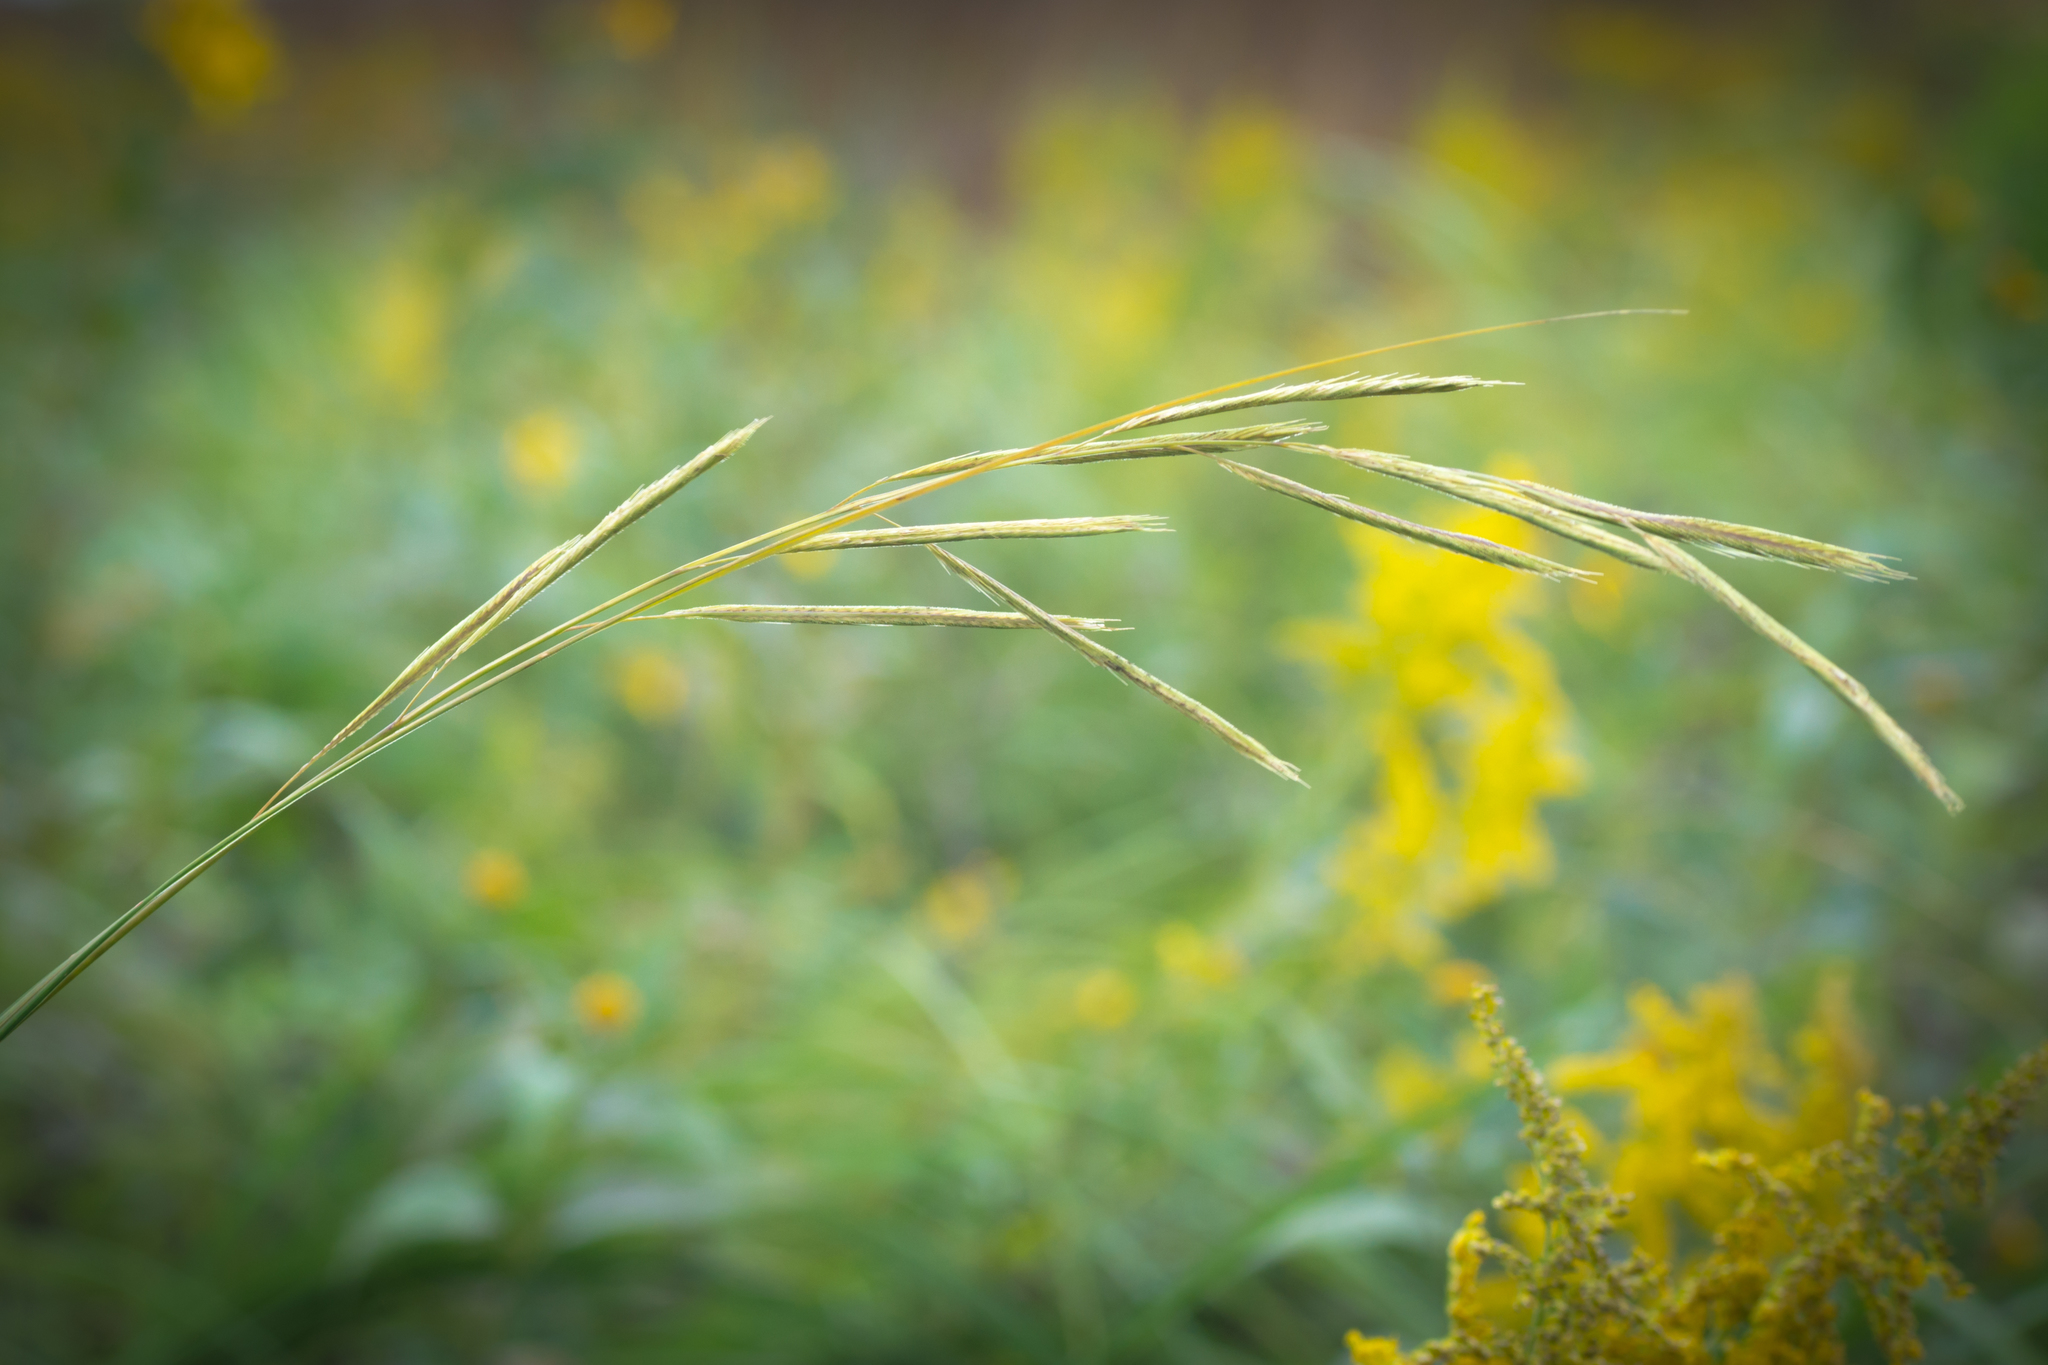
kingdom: Plantae
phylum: Tracheophyta
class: Liliopsida
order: Poales
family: Poaceae
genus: Sporobolus
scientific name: Sporobolus michauxianus
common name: Freshwater cordgrass
